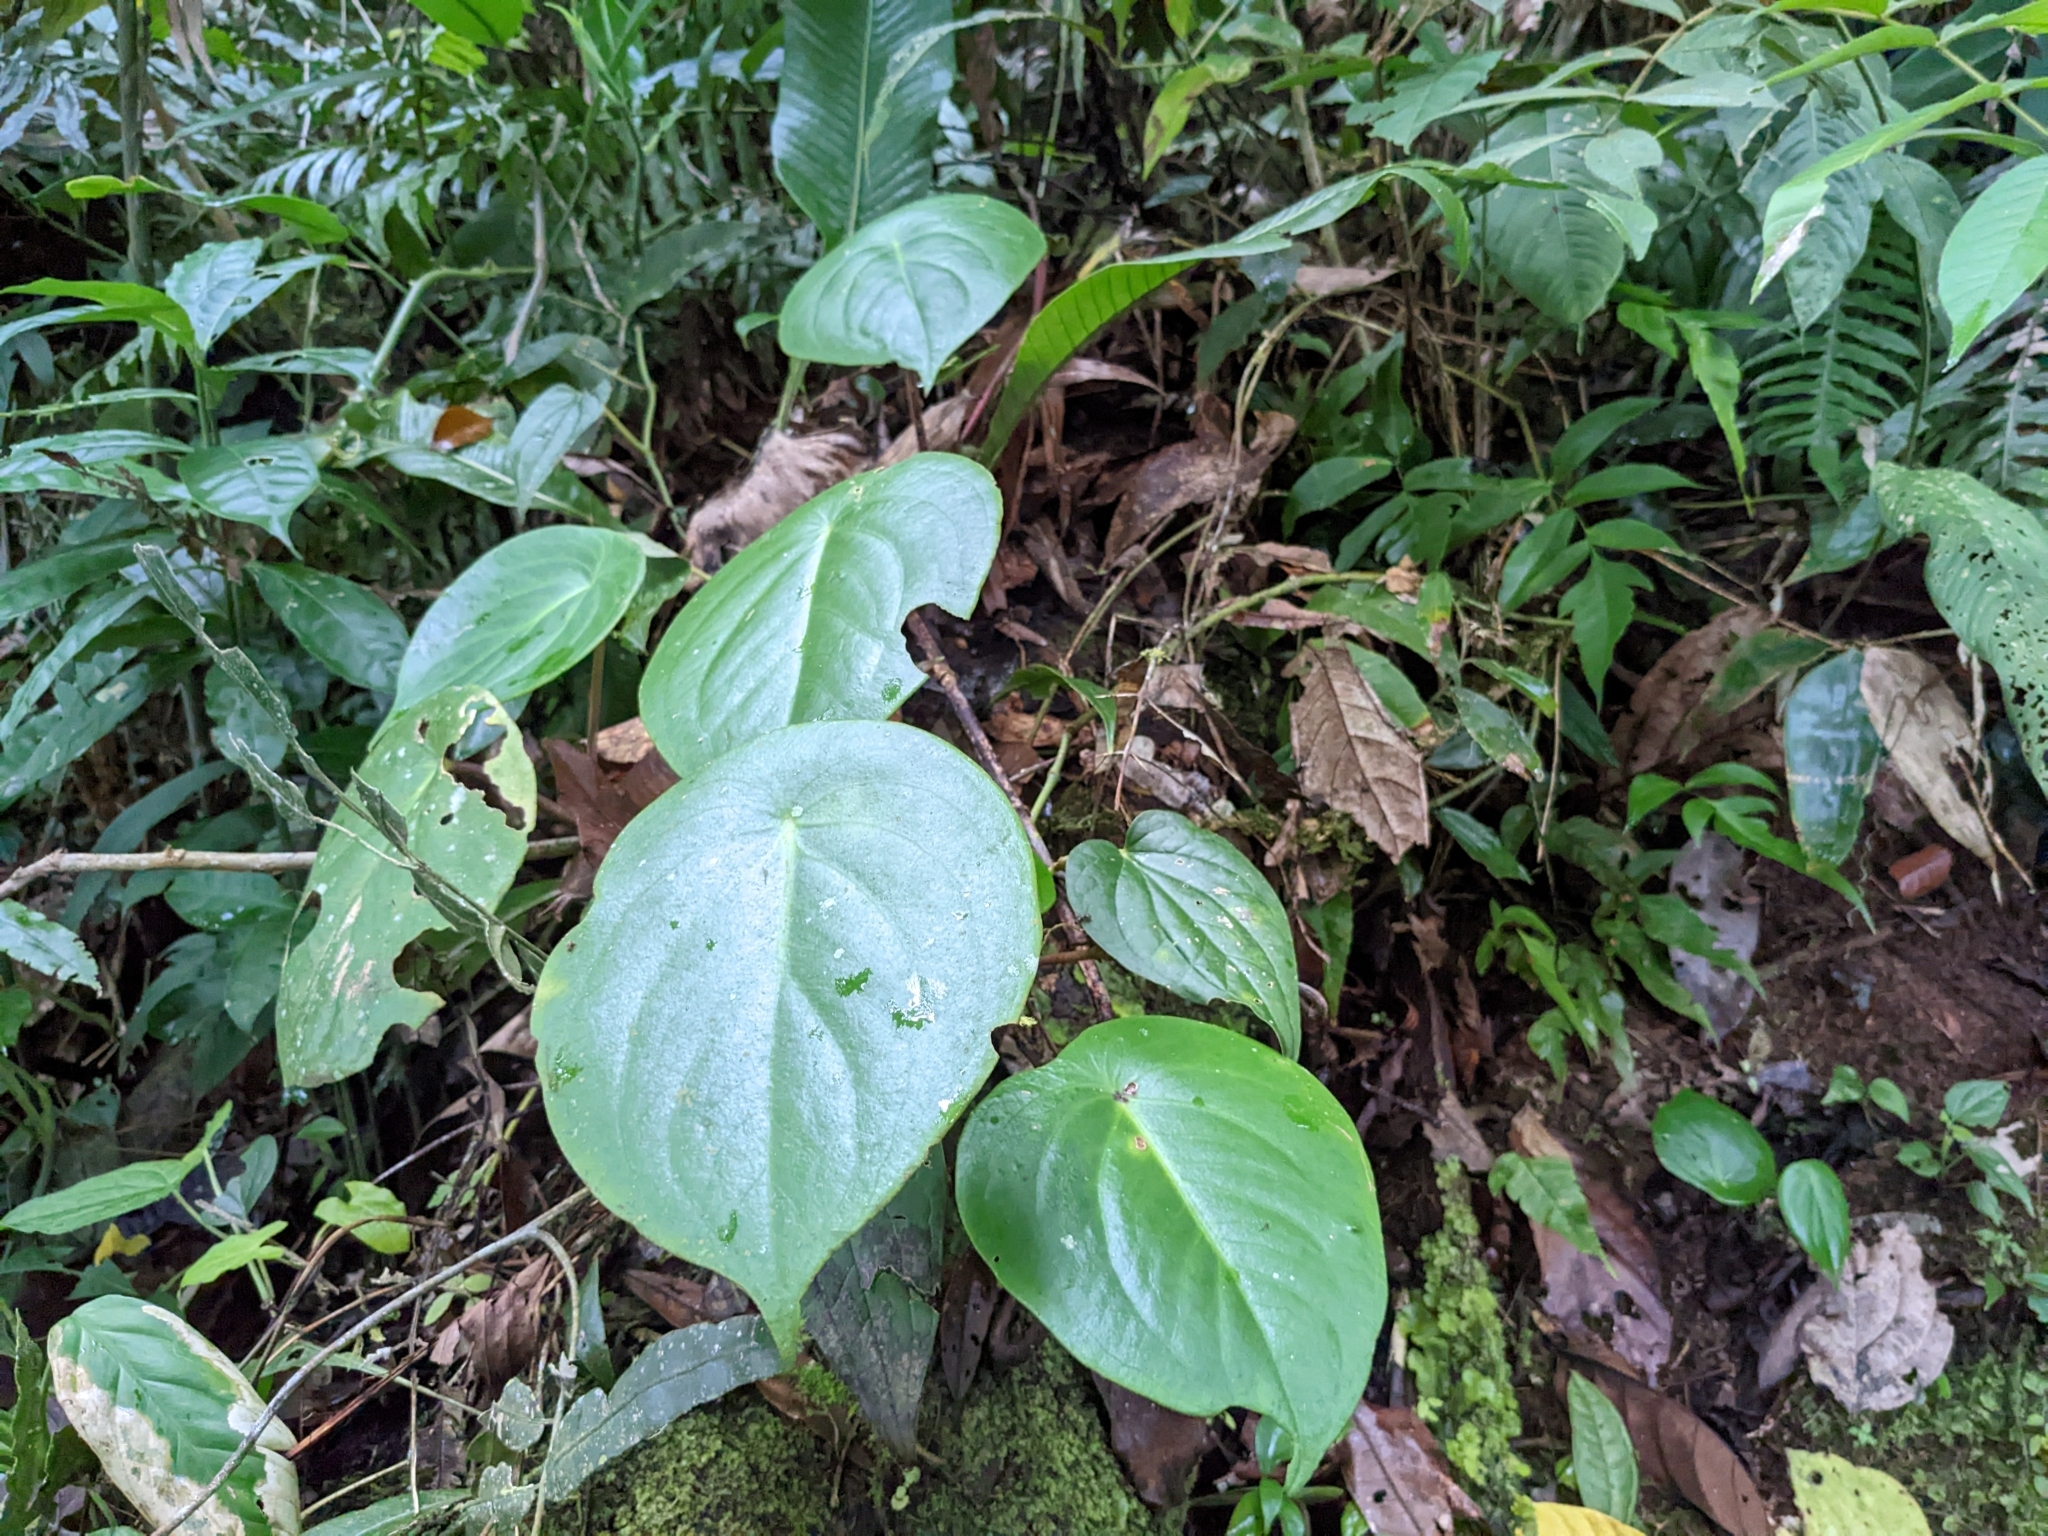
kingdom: Plantae
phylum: Tracheophyta
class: Magnoliopsida
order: Piperales
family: Piperaceae
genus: Peperomia
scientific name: Peperomia flexinervia
